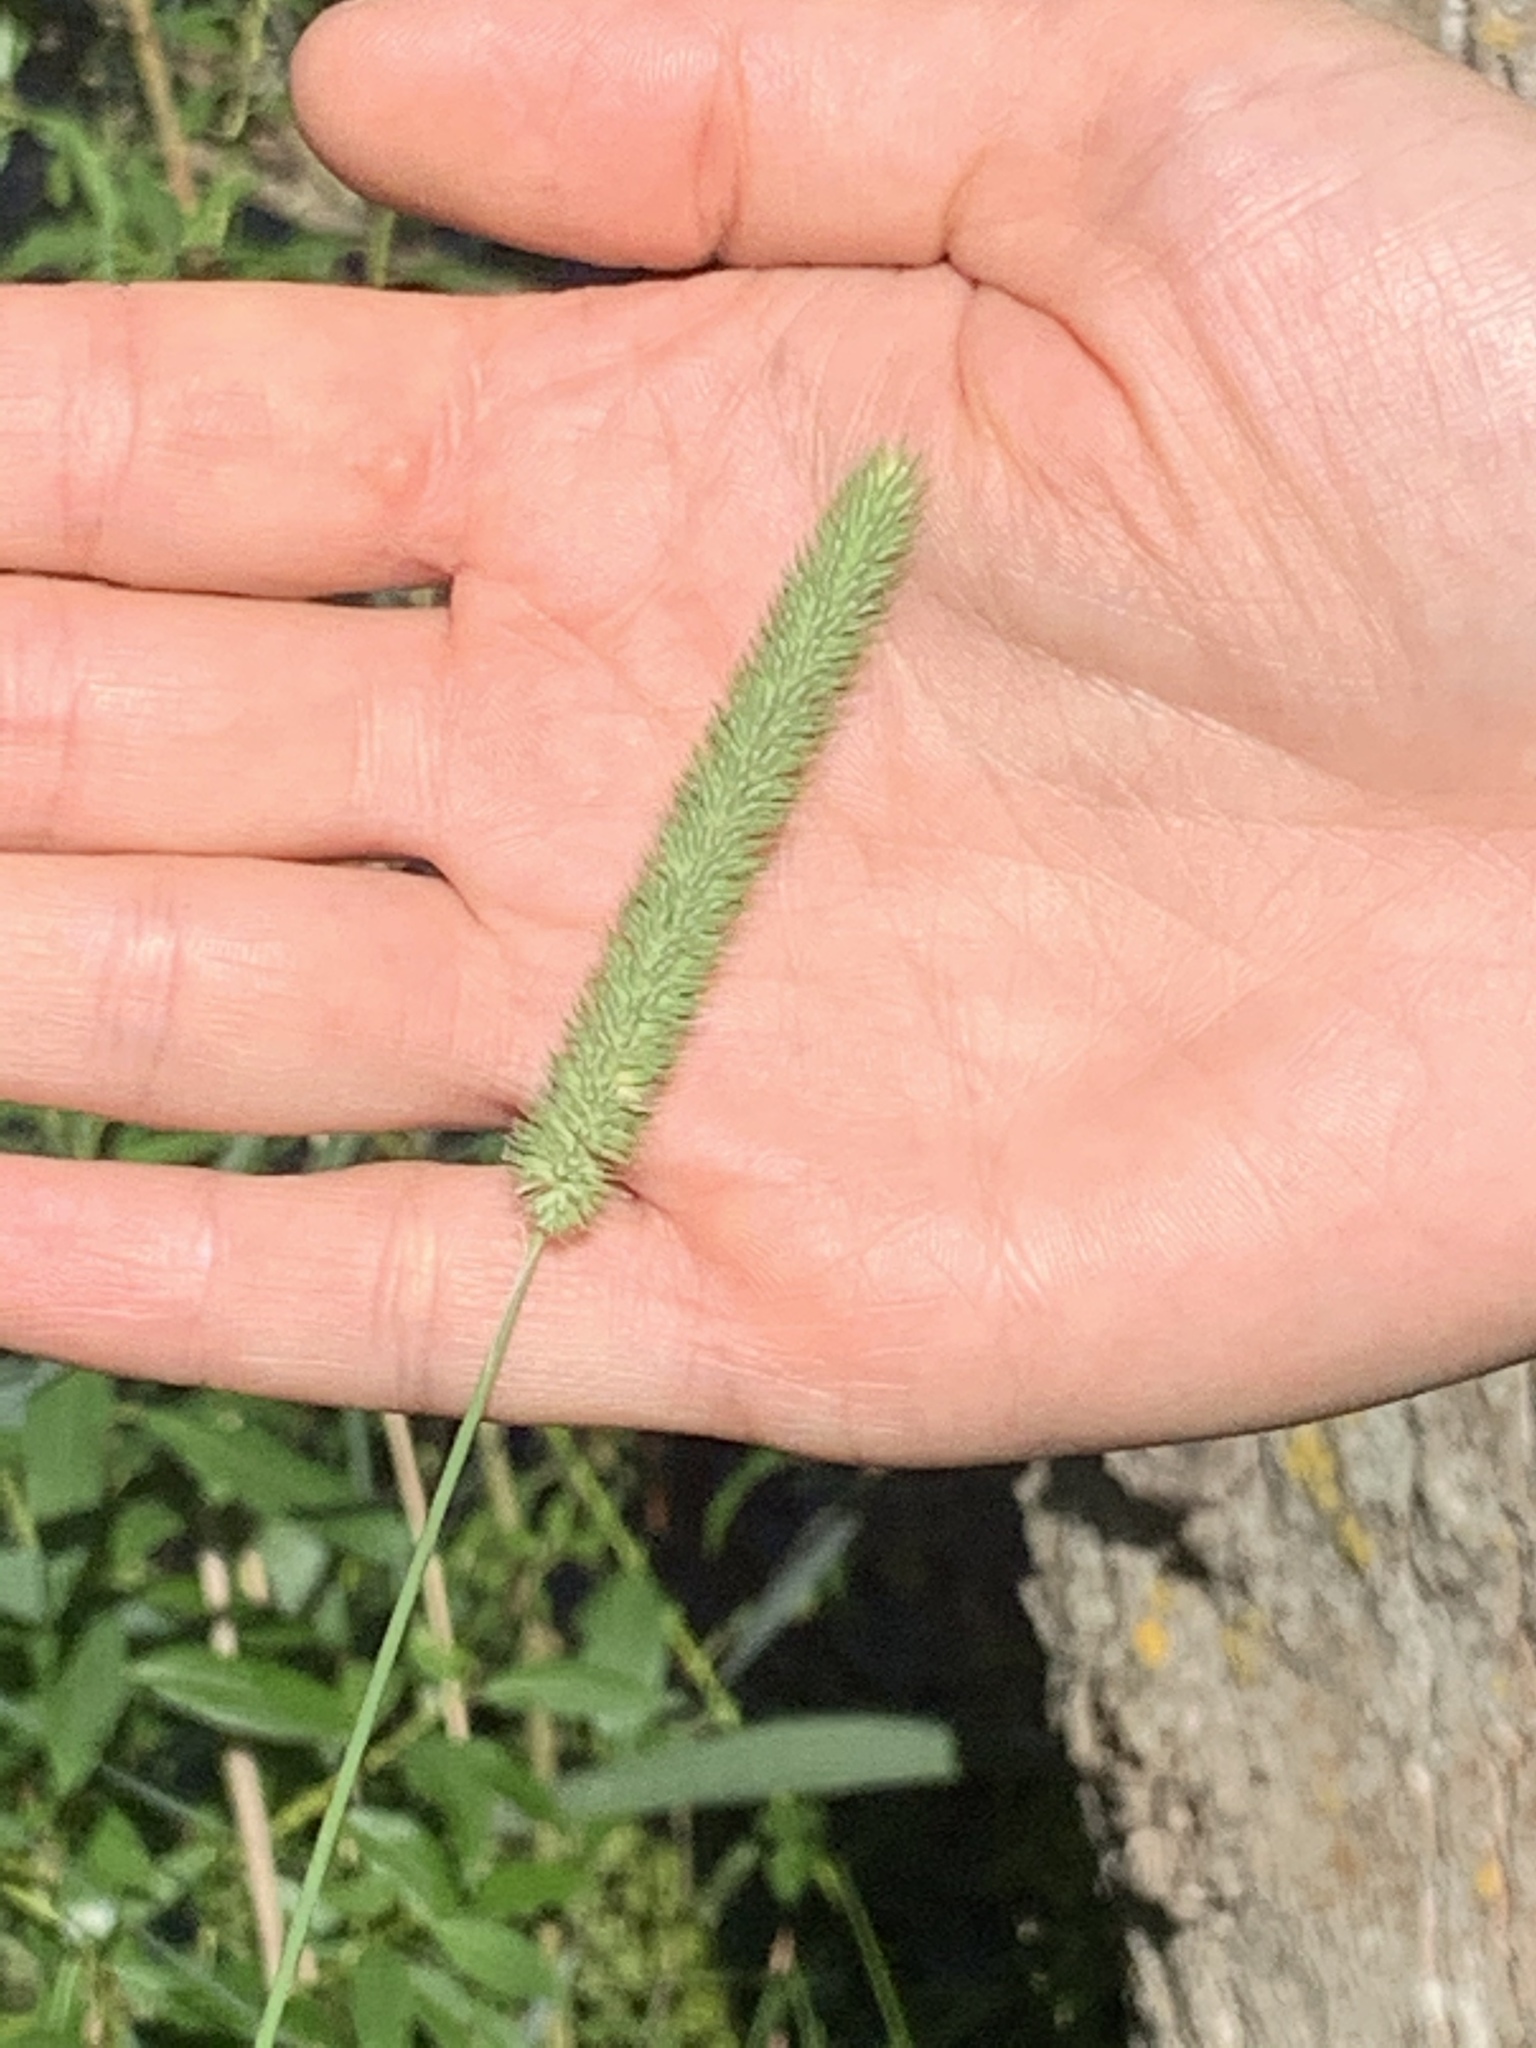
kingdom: Plantae
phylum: Tracheophyta
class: Liliopsida
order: Poales
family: Poaceae
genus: Phleum
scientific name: Phleum pratense
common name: Timothy grass
